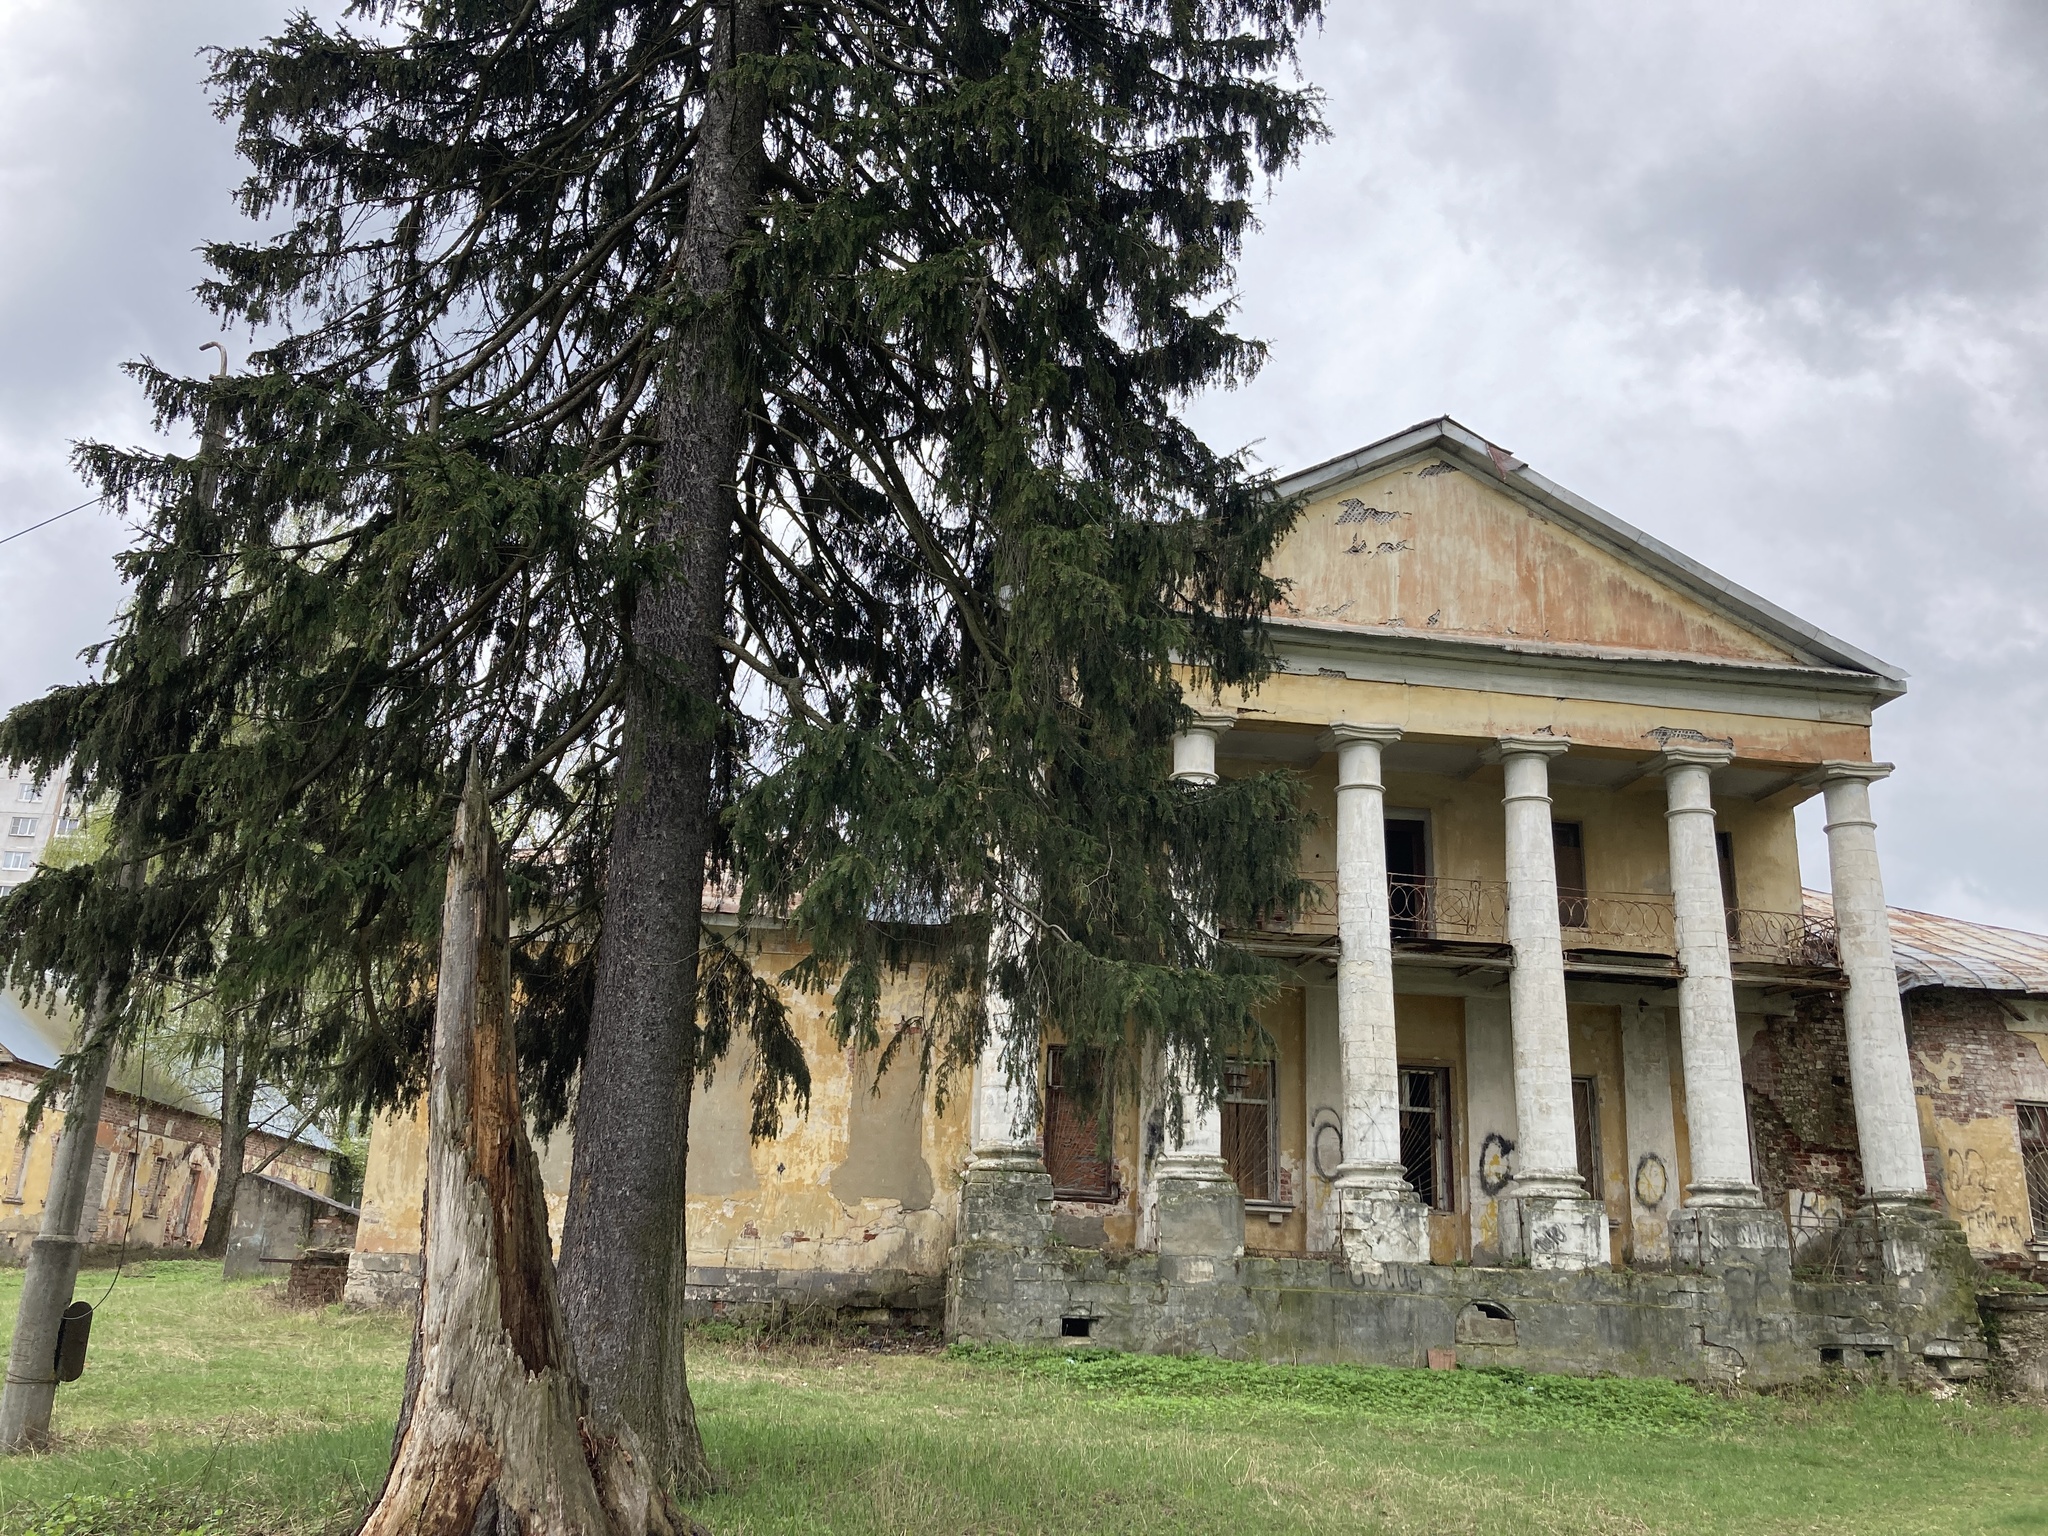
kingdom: Plantae
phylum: Tracheophyta
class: Pinopsida
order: Pinales
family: Pinaceae
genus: Picea
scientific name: Picea abies
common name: Norway spruce
